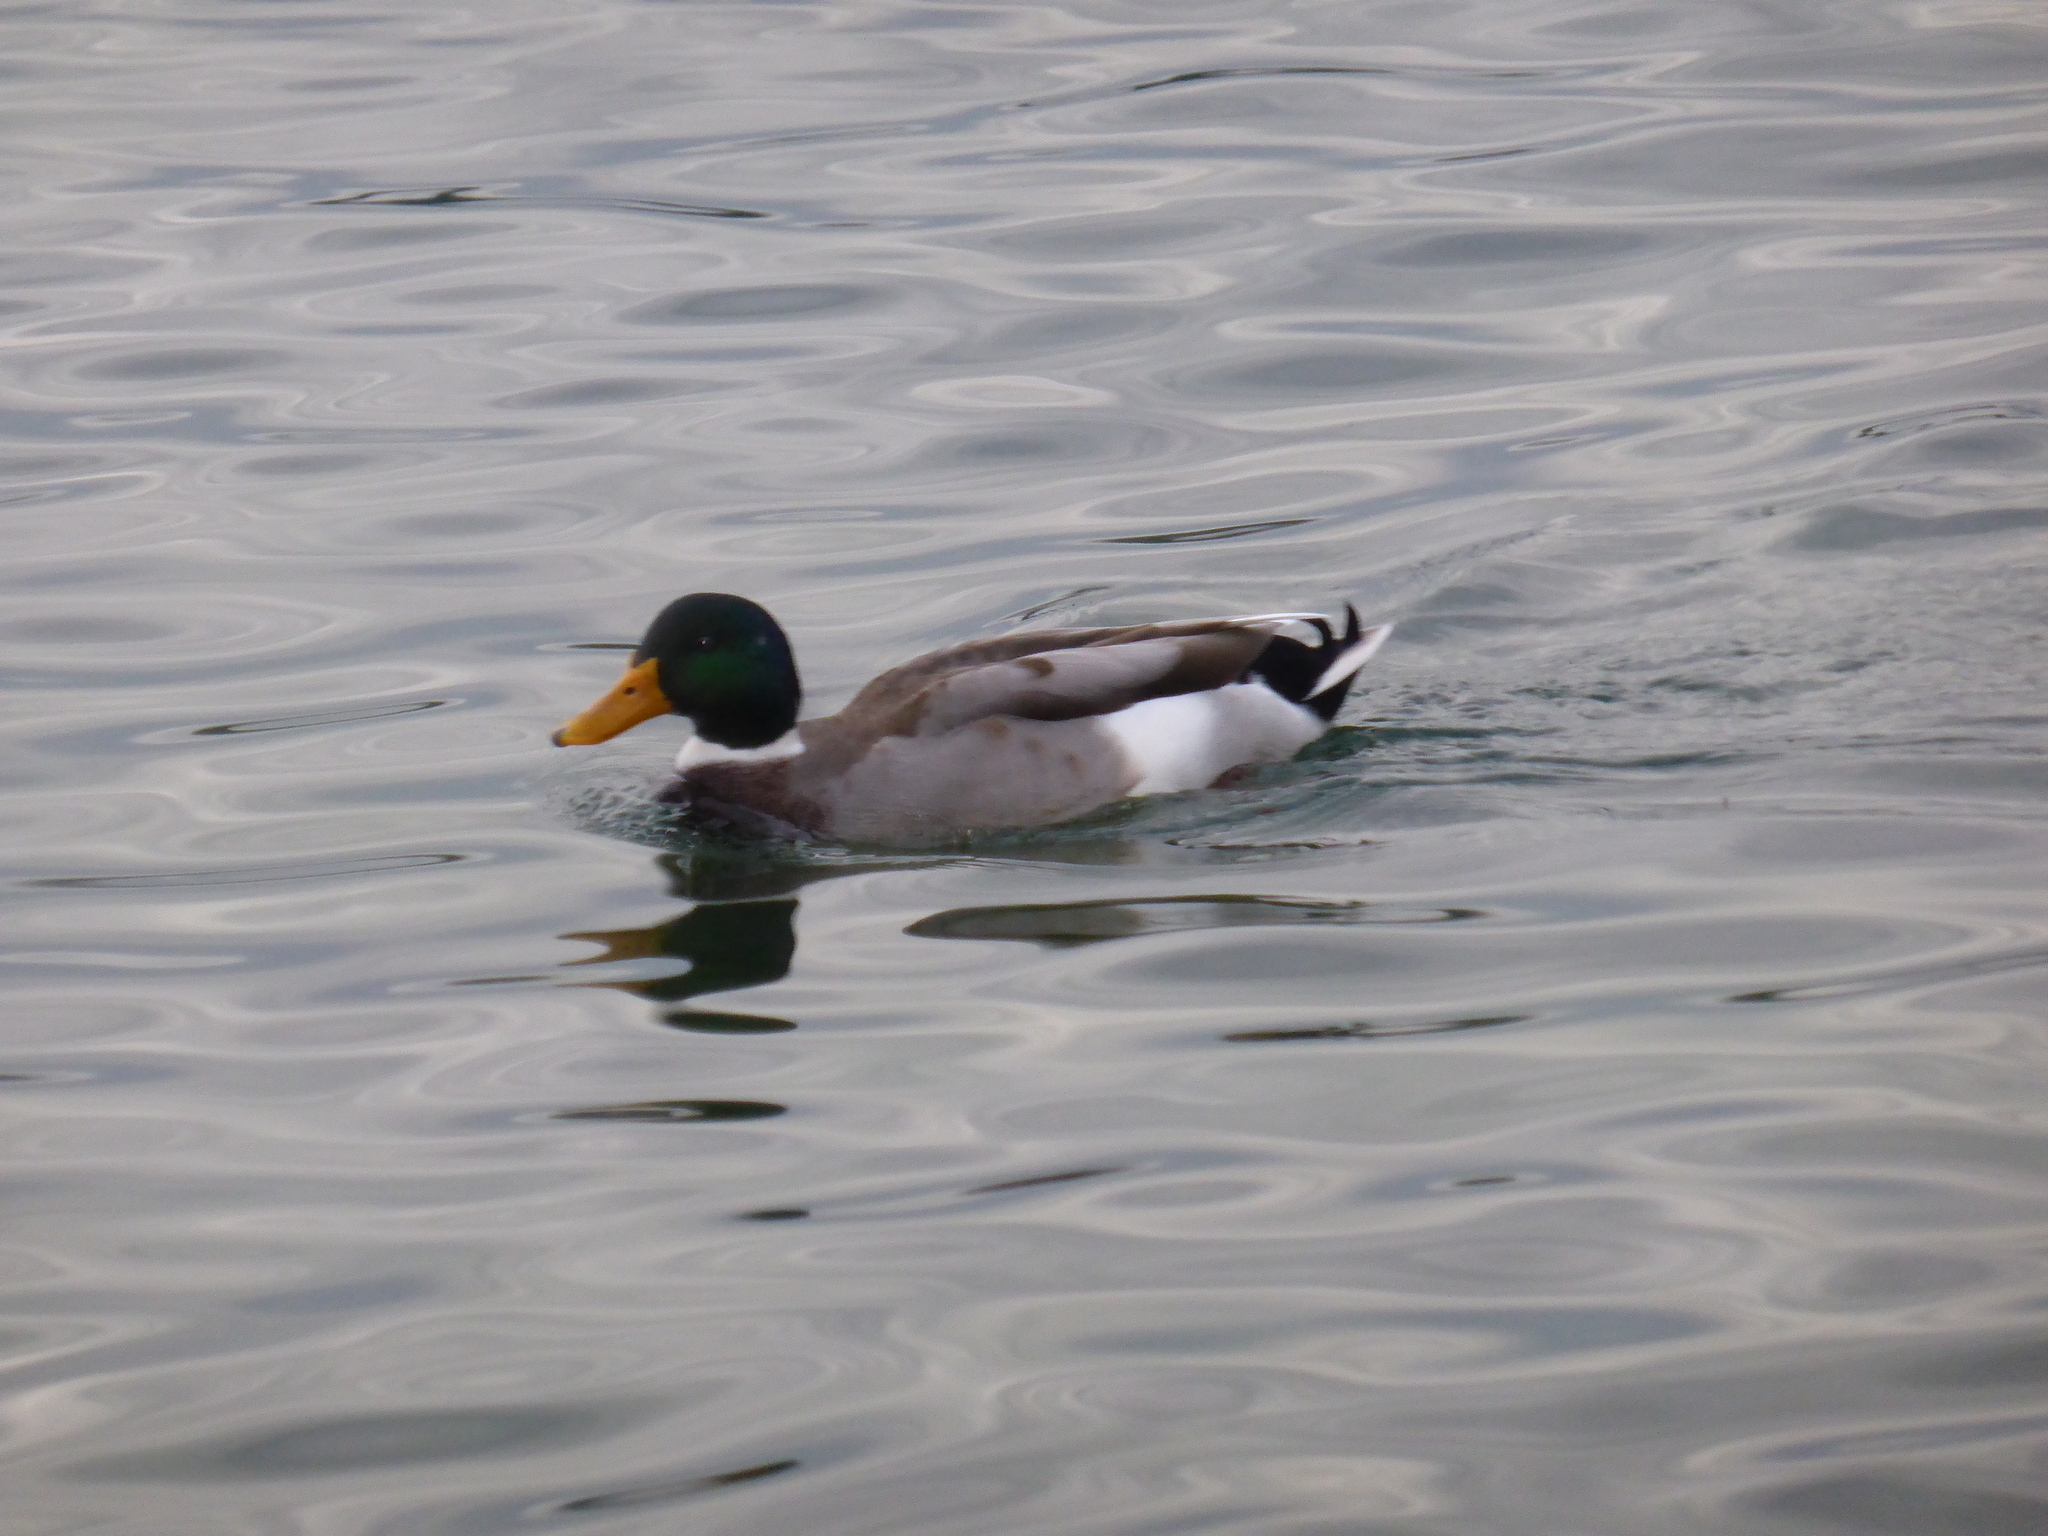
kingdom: Animalia
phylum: Chordata
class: Aves
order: Anseriformes
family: Anatidae
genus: Anas
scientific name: Anas platyrhynchos
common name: Mallard
